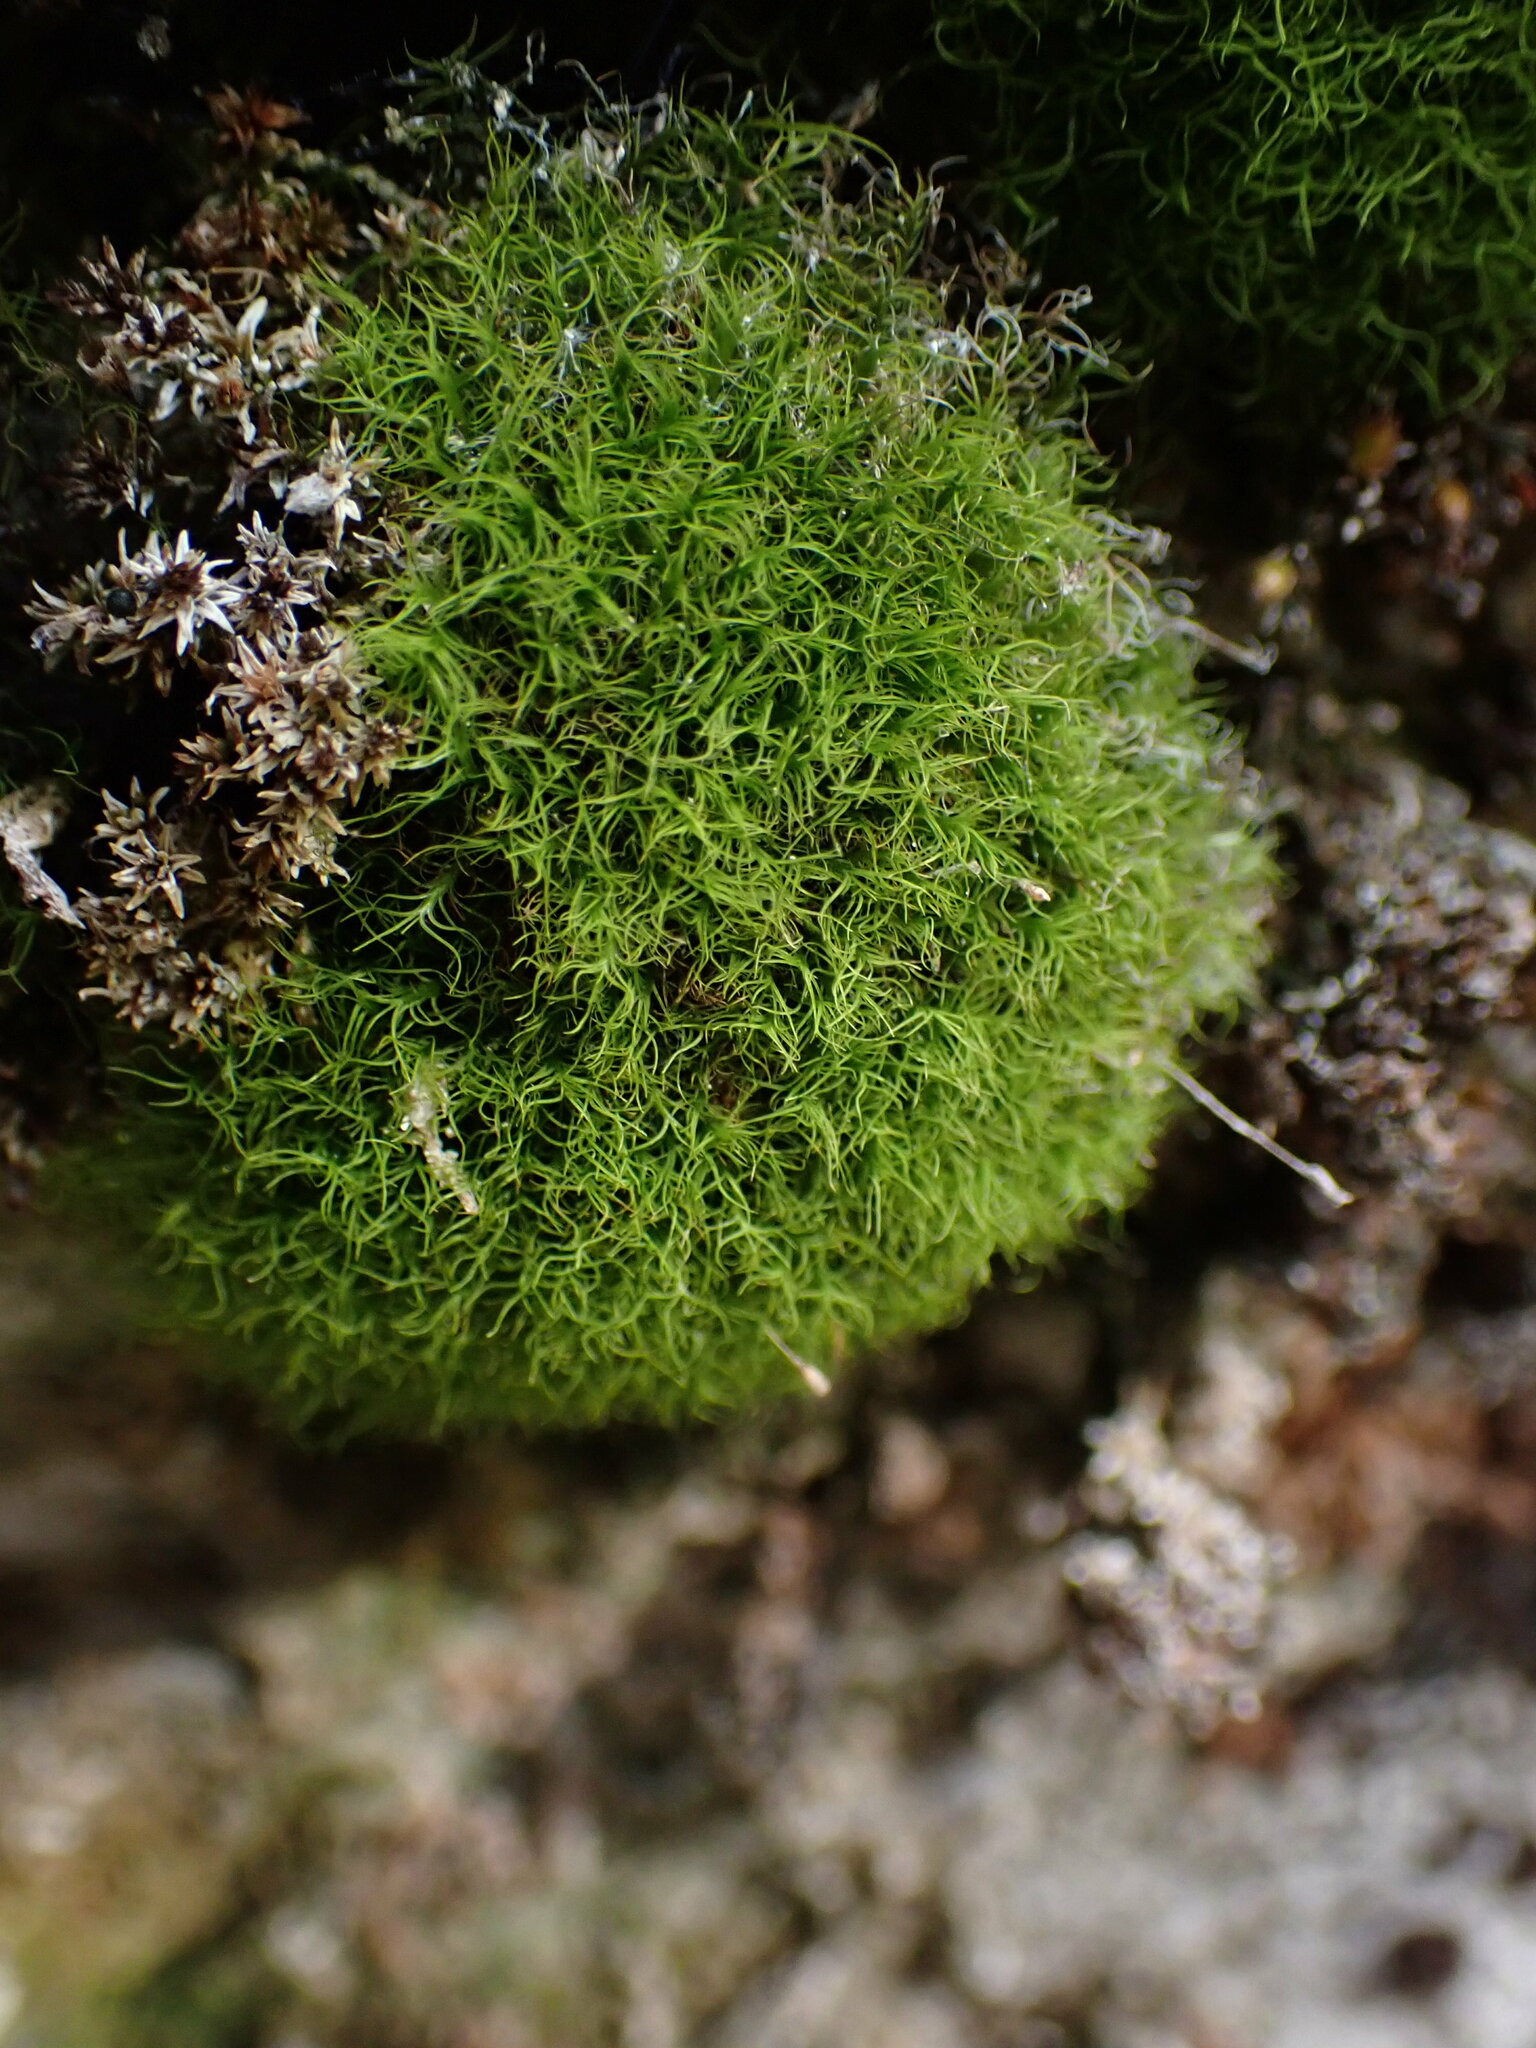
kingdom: Plantae
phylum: Bryophyta
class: Bryopsida
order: Scouleriales
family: Distichiaceae
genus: Distichium
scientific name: Distichium capillaceum
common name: Erect-fruited iris moss
